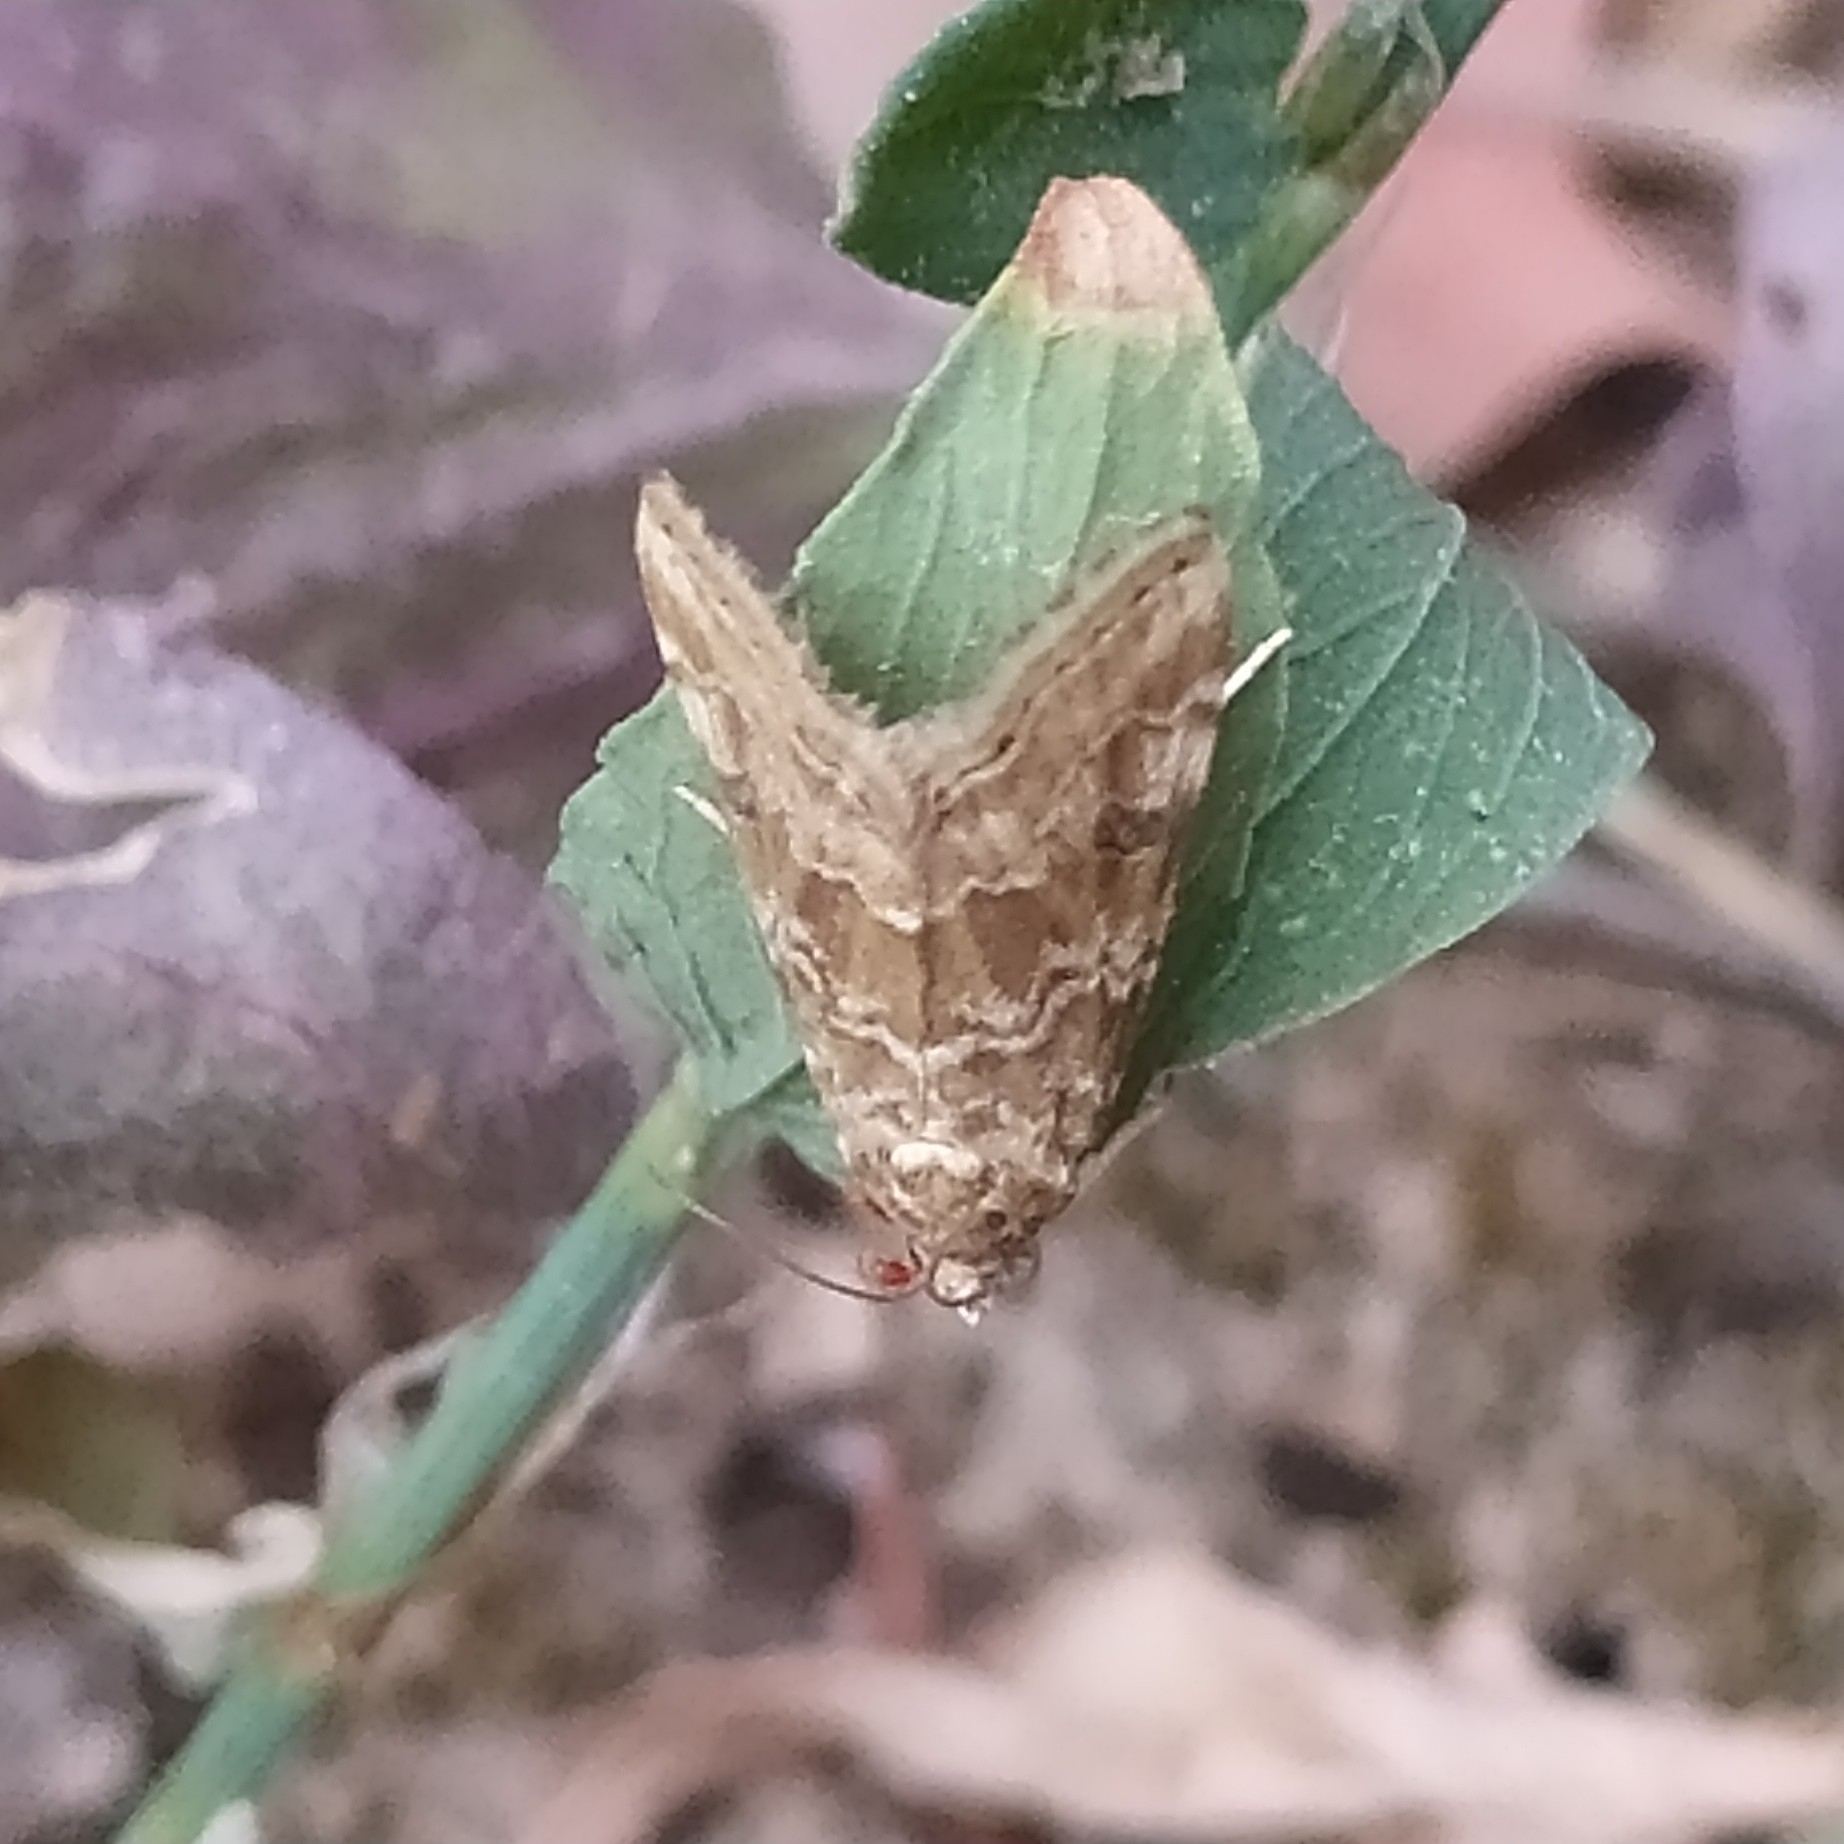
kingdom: Animalia
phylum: Arthropoda
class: Insecta
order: Lepidoptera
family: Crambidae
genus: Hellula
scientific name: Hellula undalis
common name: Cabbage webworm
